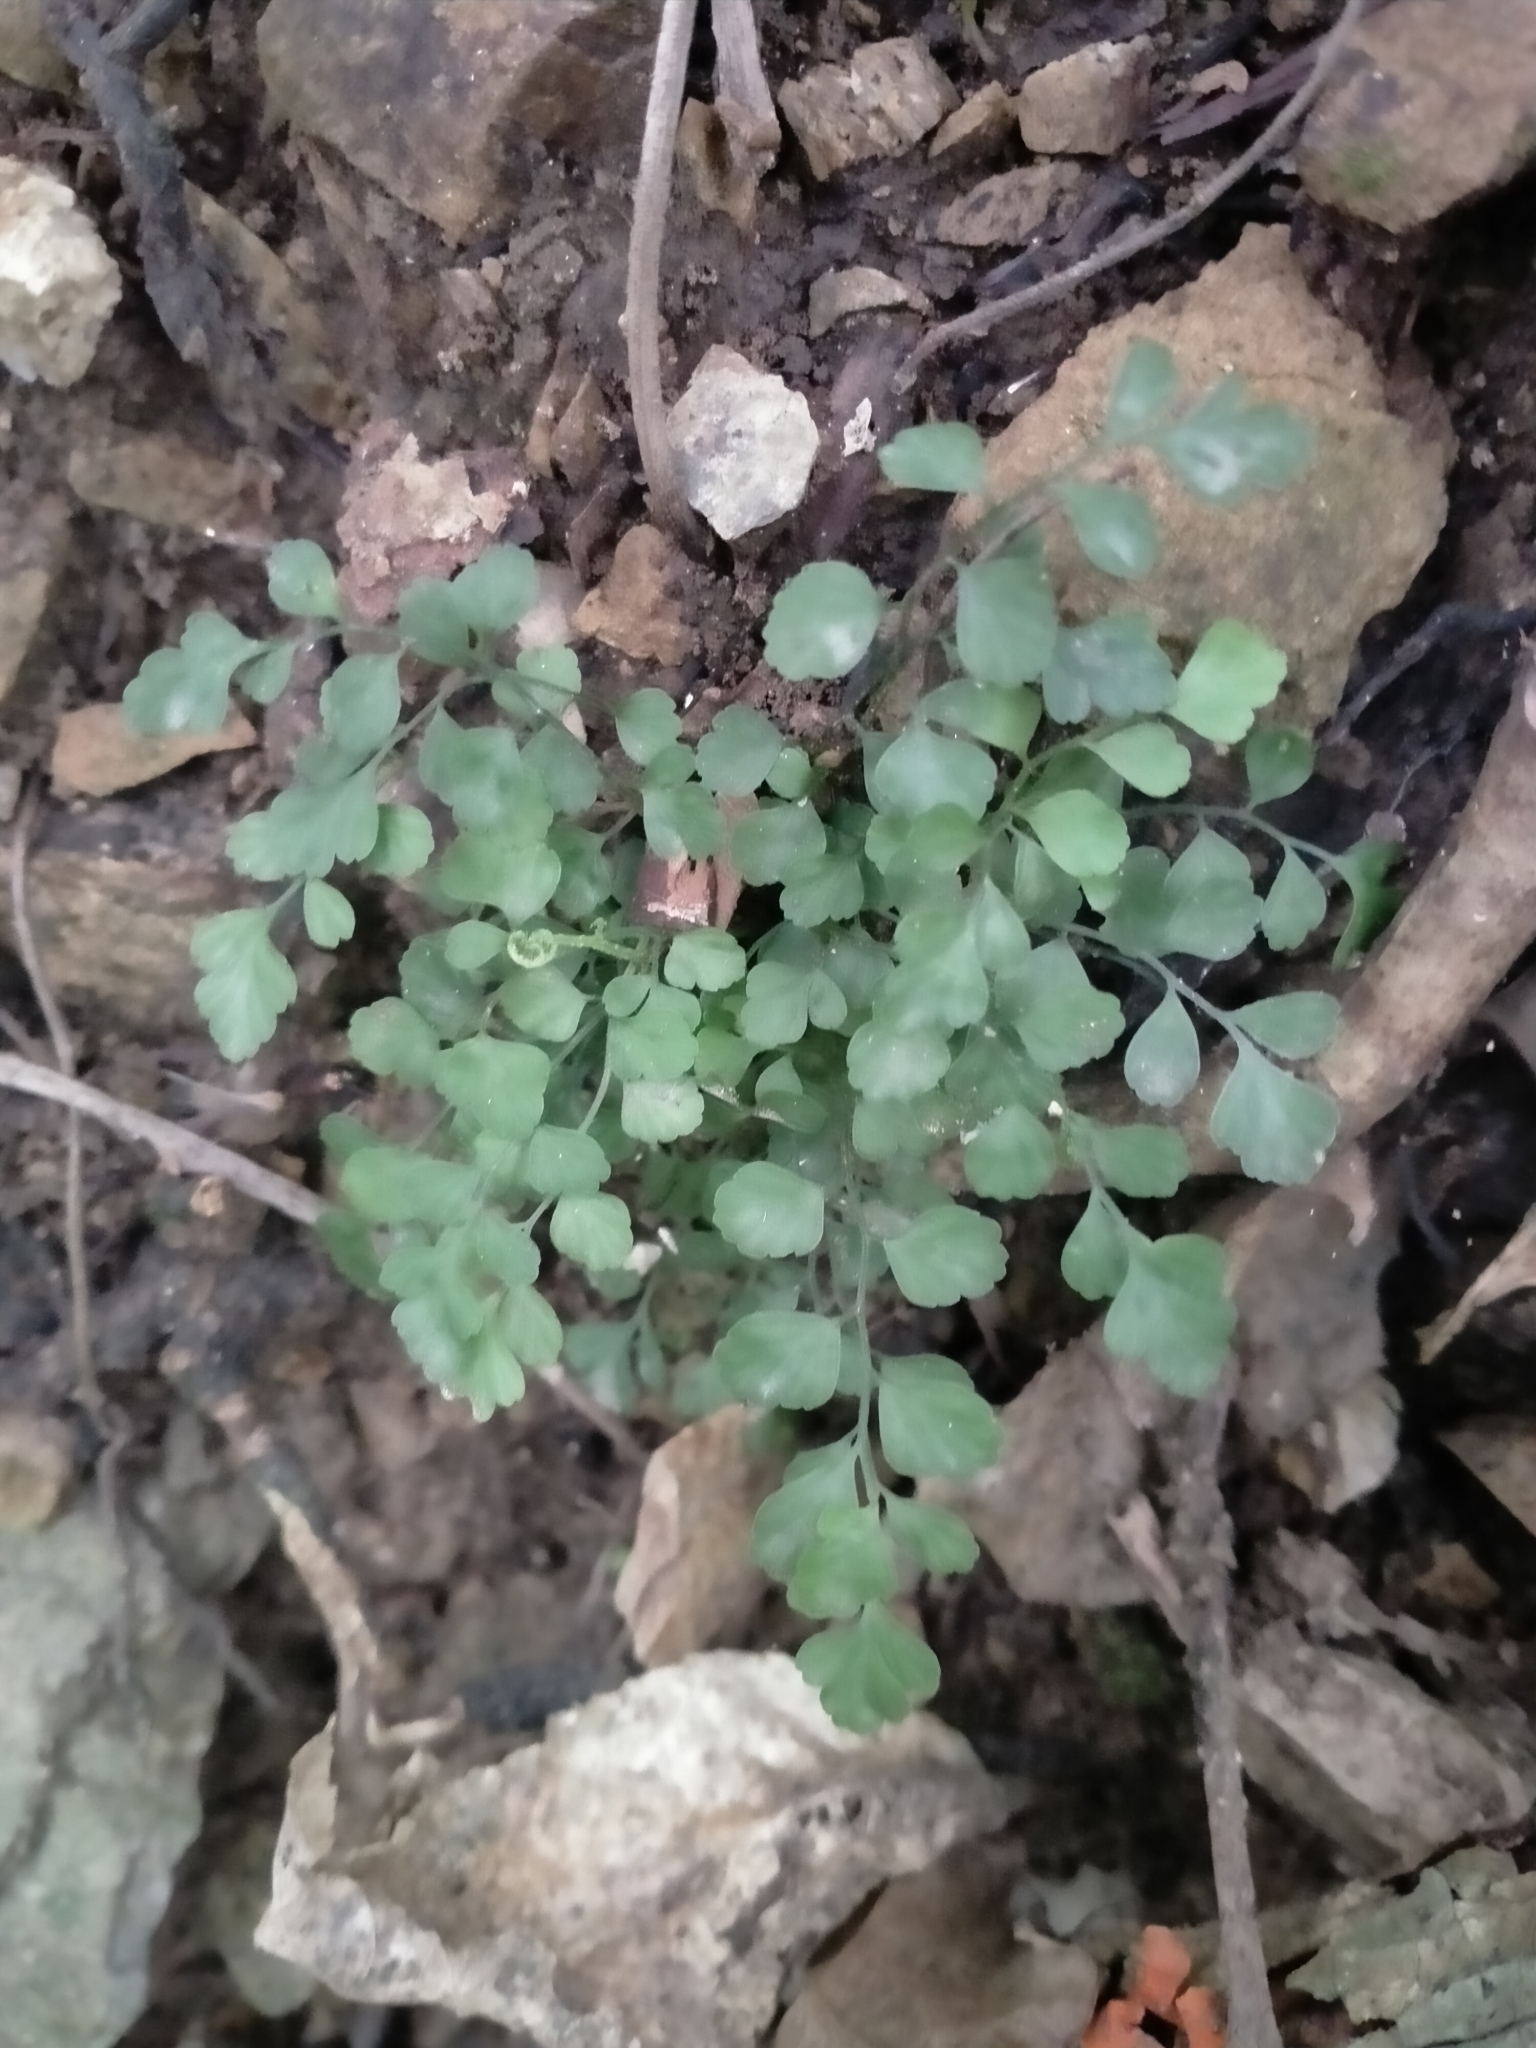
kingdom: Plantae
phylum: Tracheophyta
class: Polypodiopsida
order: Polypodiales
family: Aspleniaceae
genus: Asplenium
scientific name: Asplenium hookerianum
